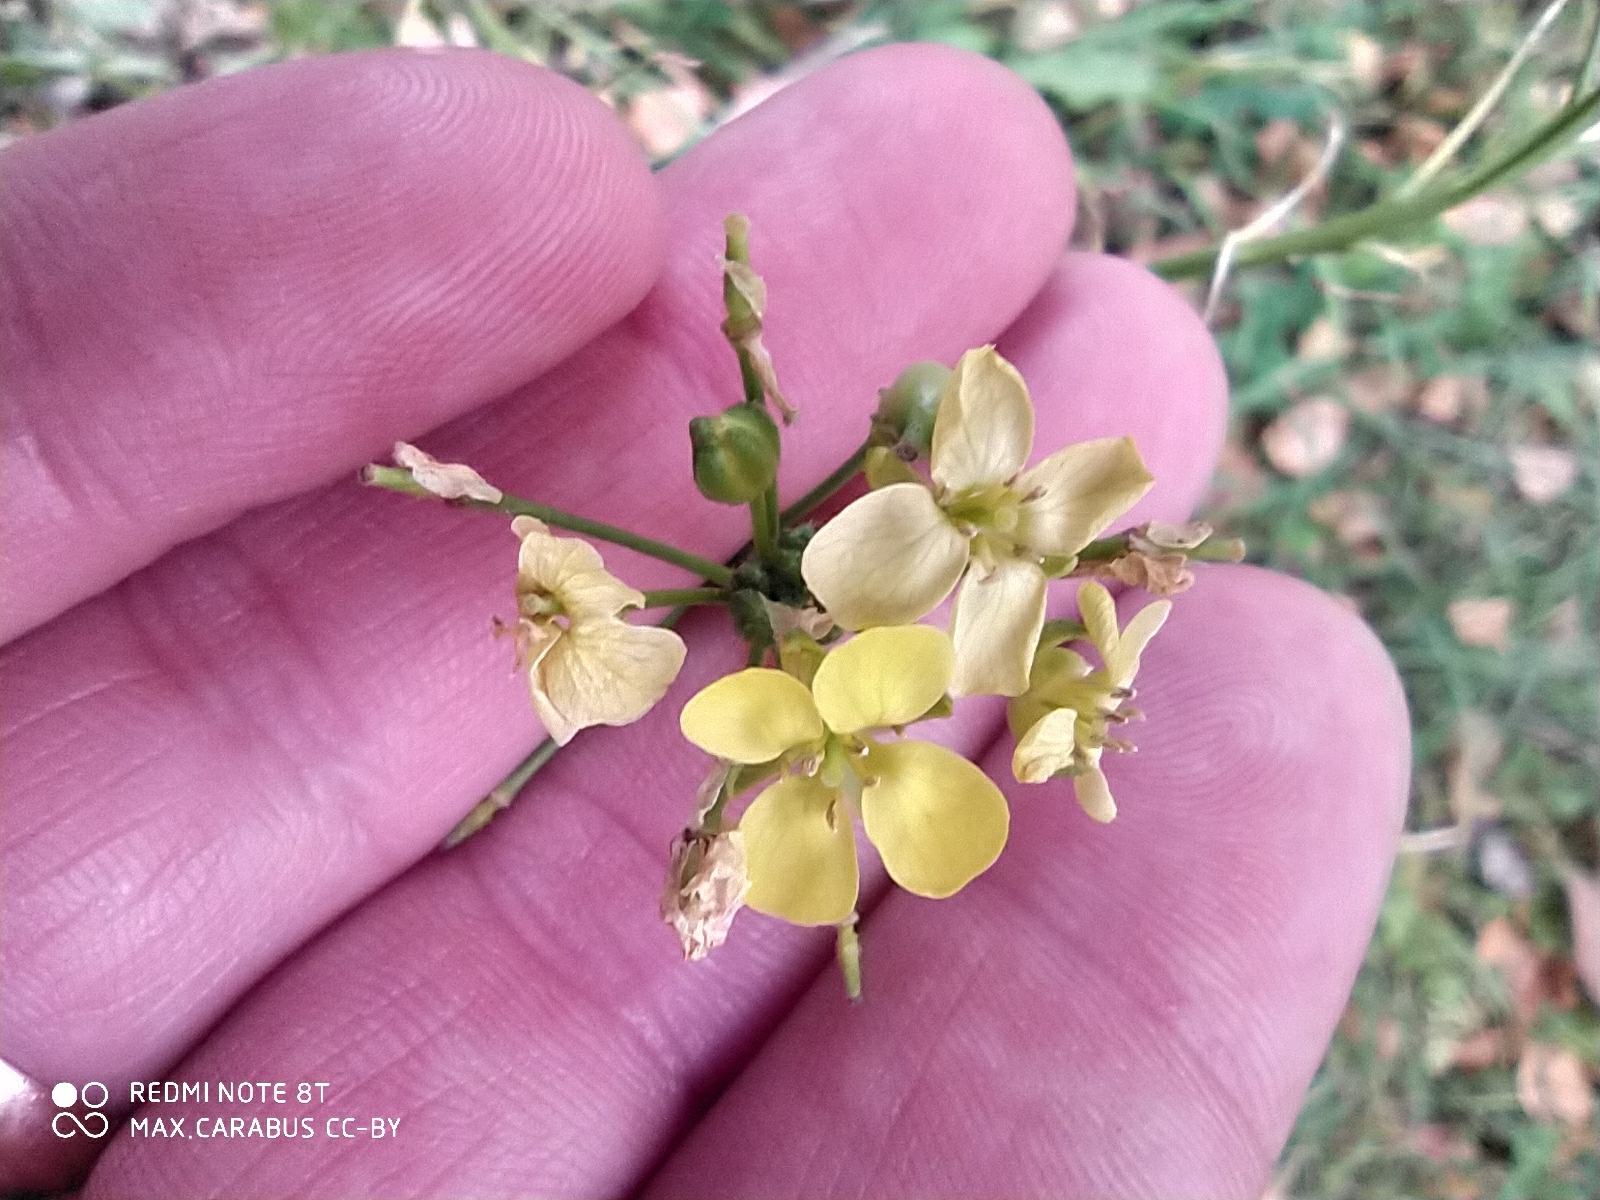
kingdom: Plantae
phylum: Tracheophyta
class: Magnoliopsida
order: Brassicales
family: Brassicaceae
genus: Bunias
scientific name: Bunias orientalis
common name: Warty-cabbage
